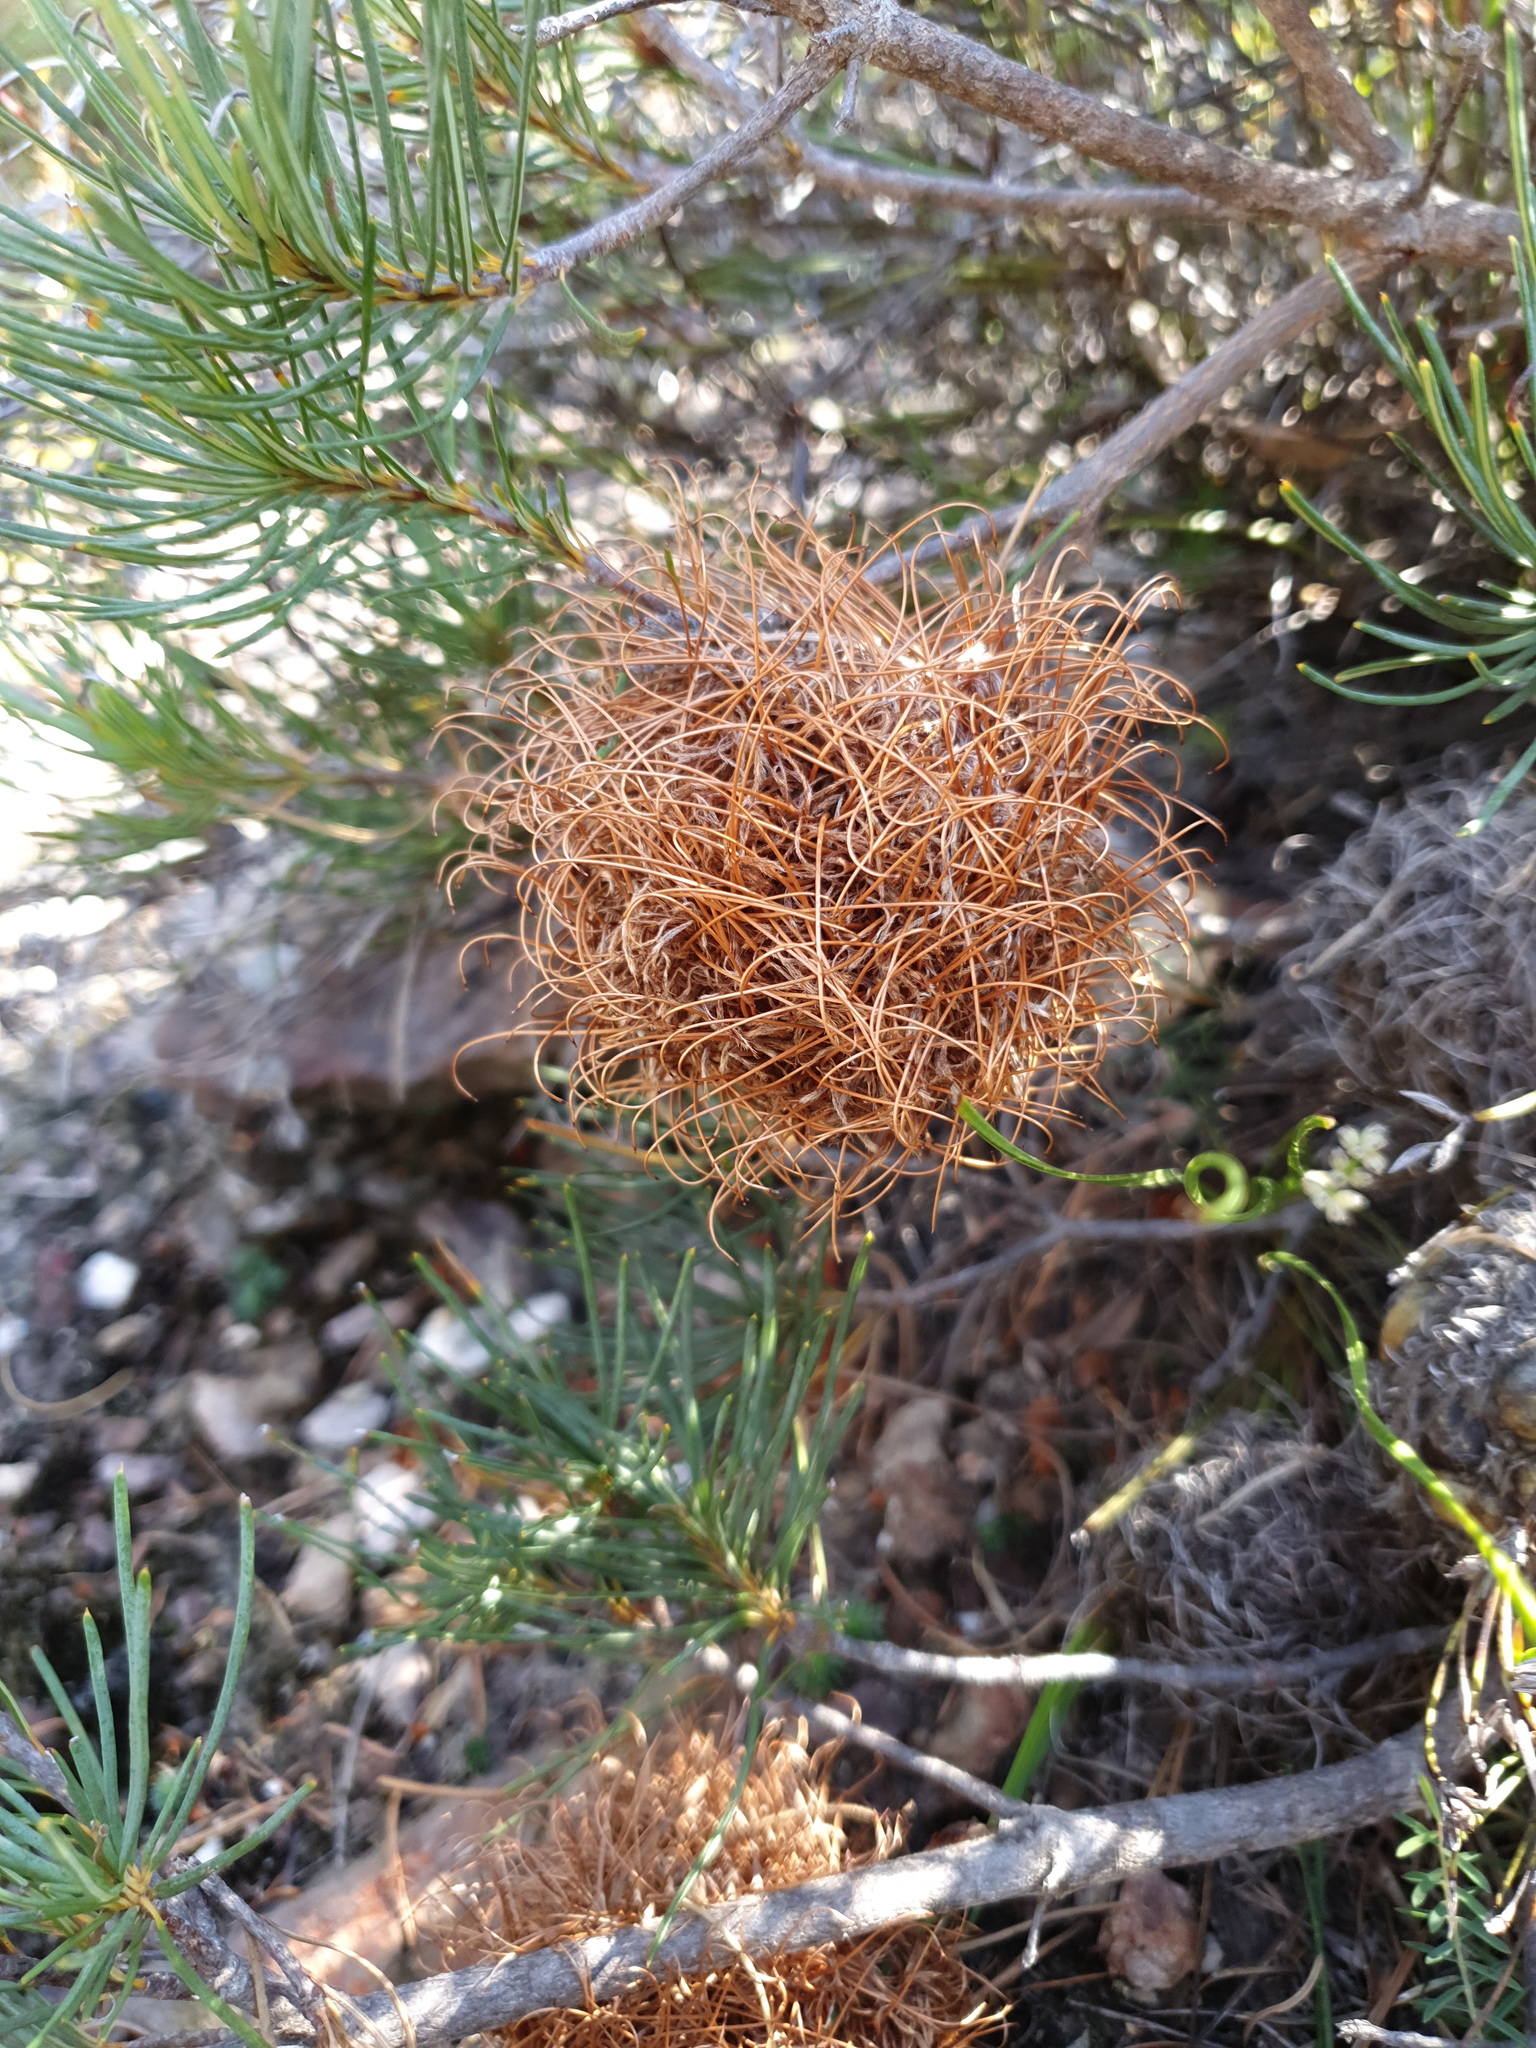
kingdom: Plantae
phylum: Tracheophyta
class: Magnoliopsida
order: Proteales
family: Proteaceae
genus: Banksia
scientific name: Banksia sphaerocarpa
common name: Fox banksia
